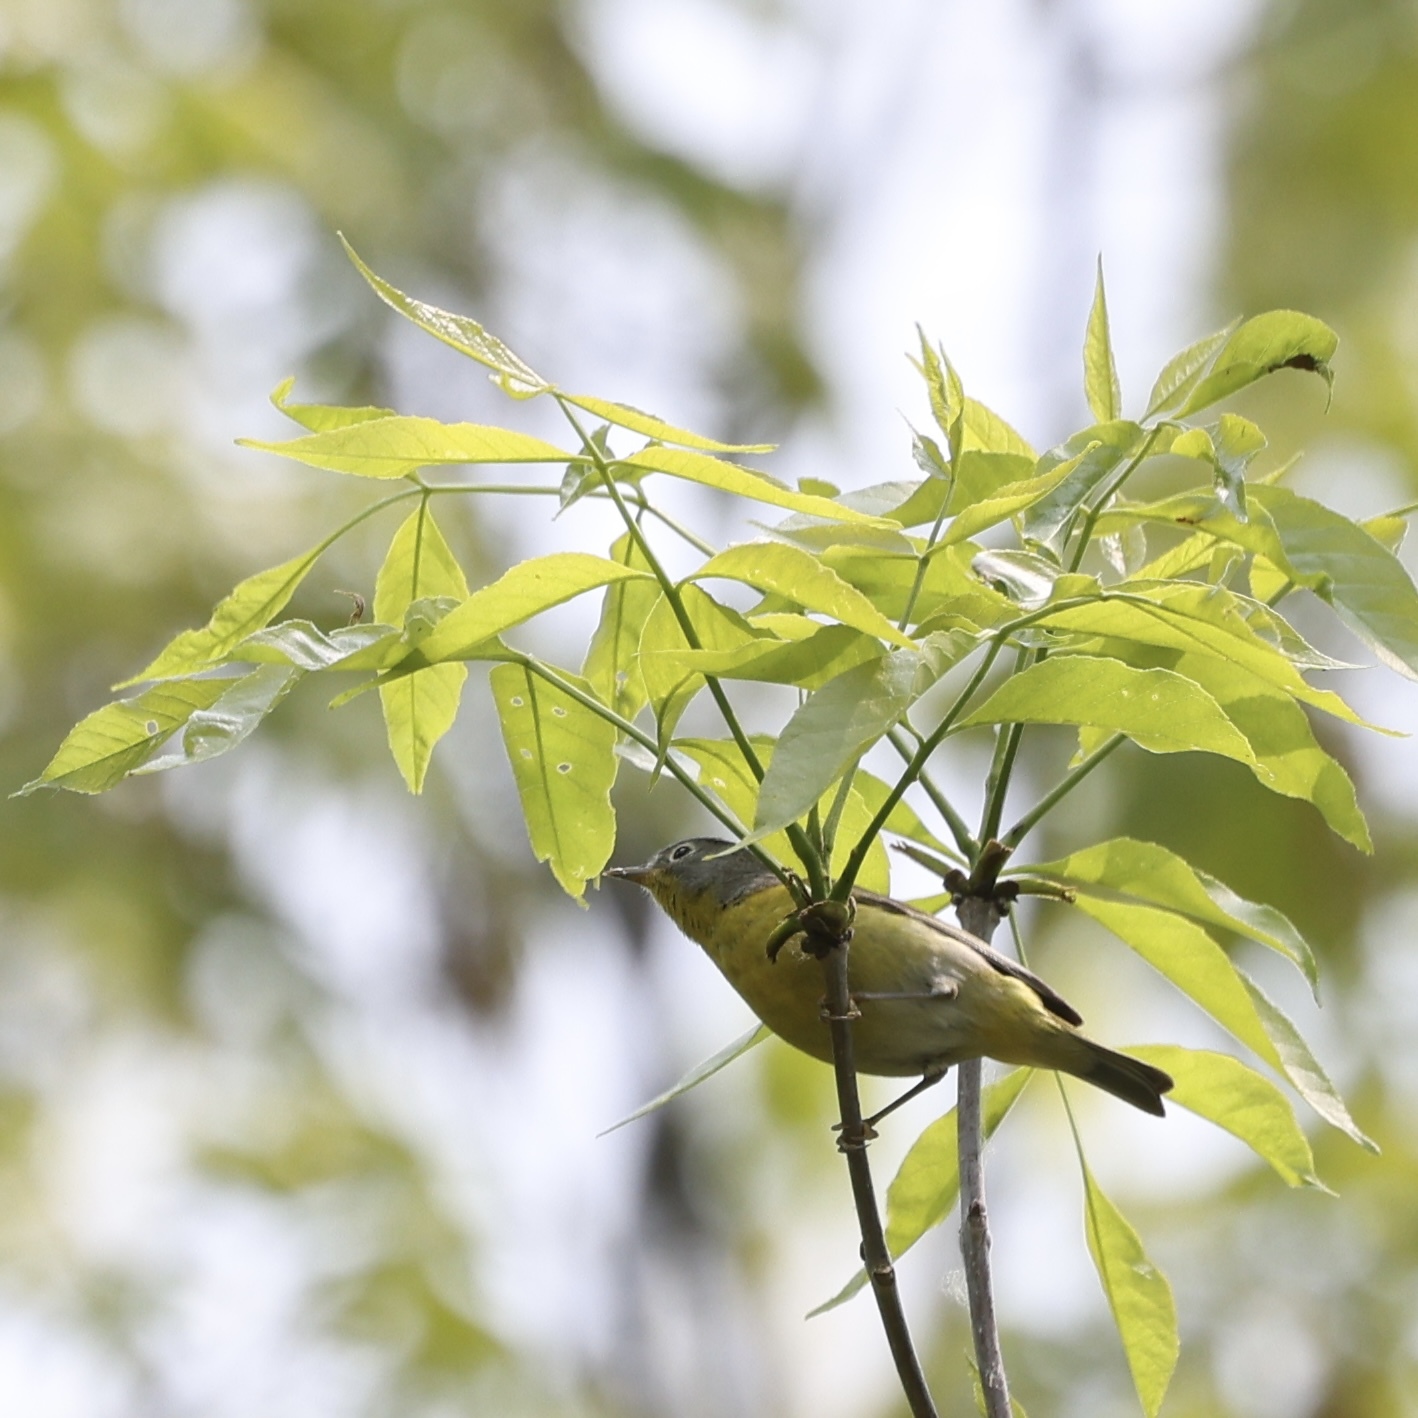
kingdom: Animalia
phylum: Chordata
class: Aves
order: Passeriformes
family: Parulidae
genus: Leiothlypis
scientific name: Leiothlypis ruficapilla
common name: Nashville warbler
